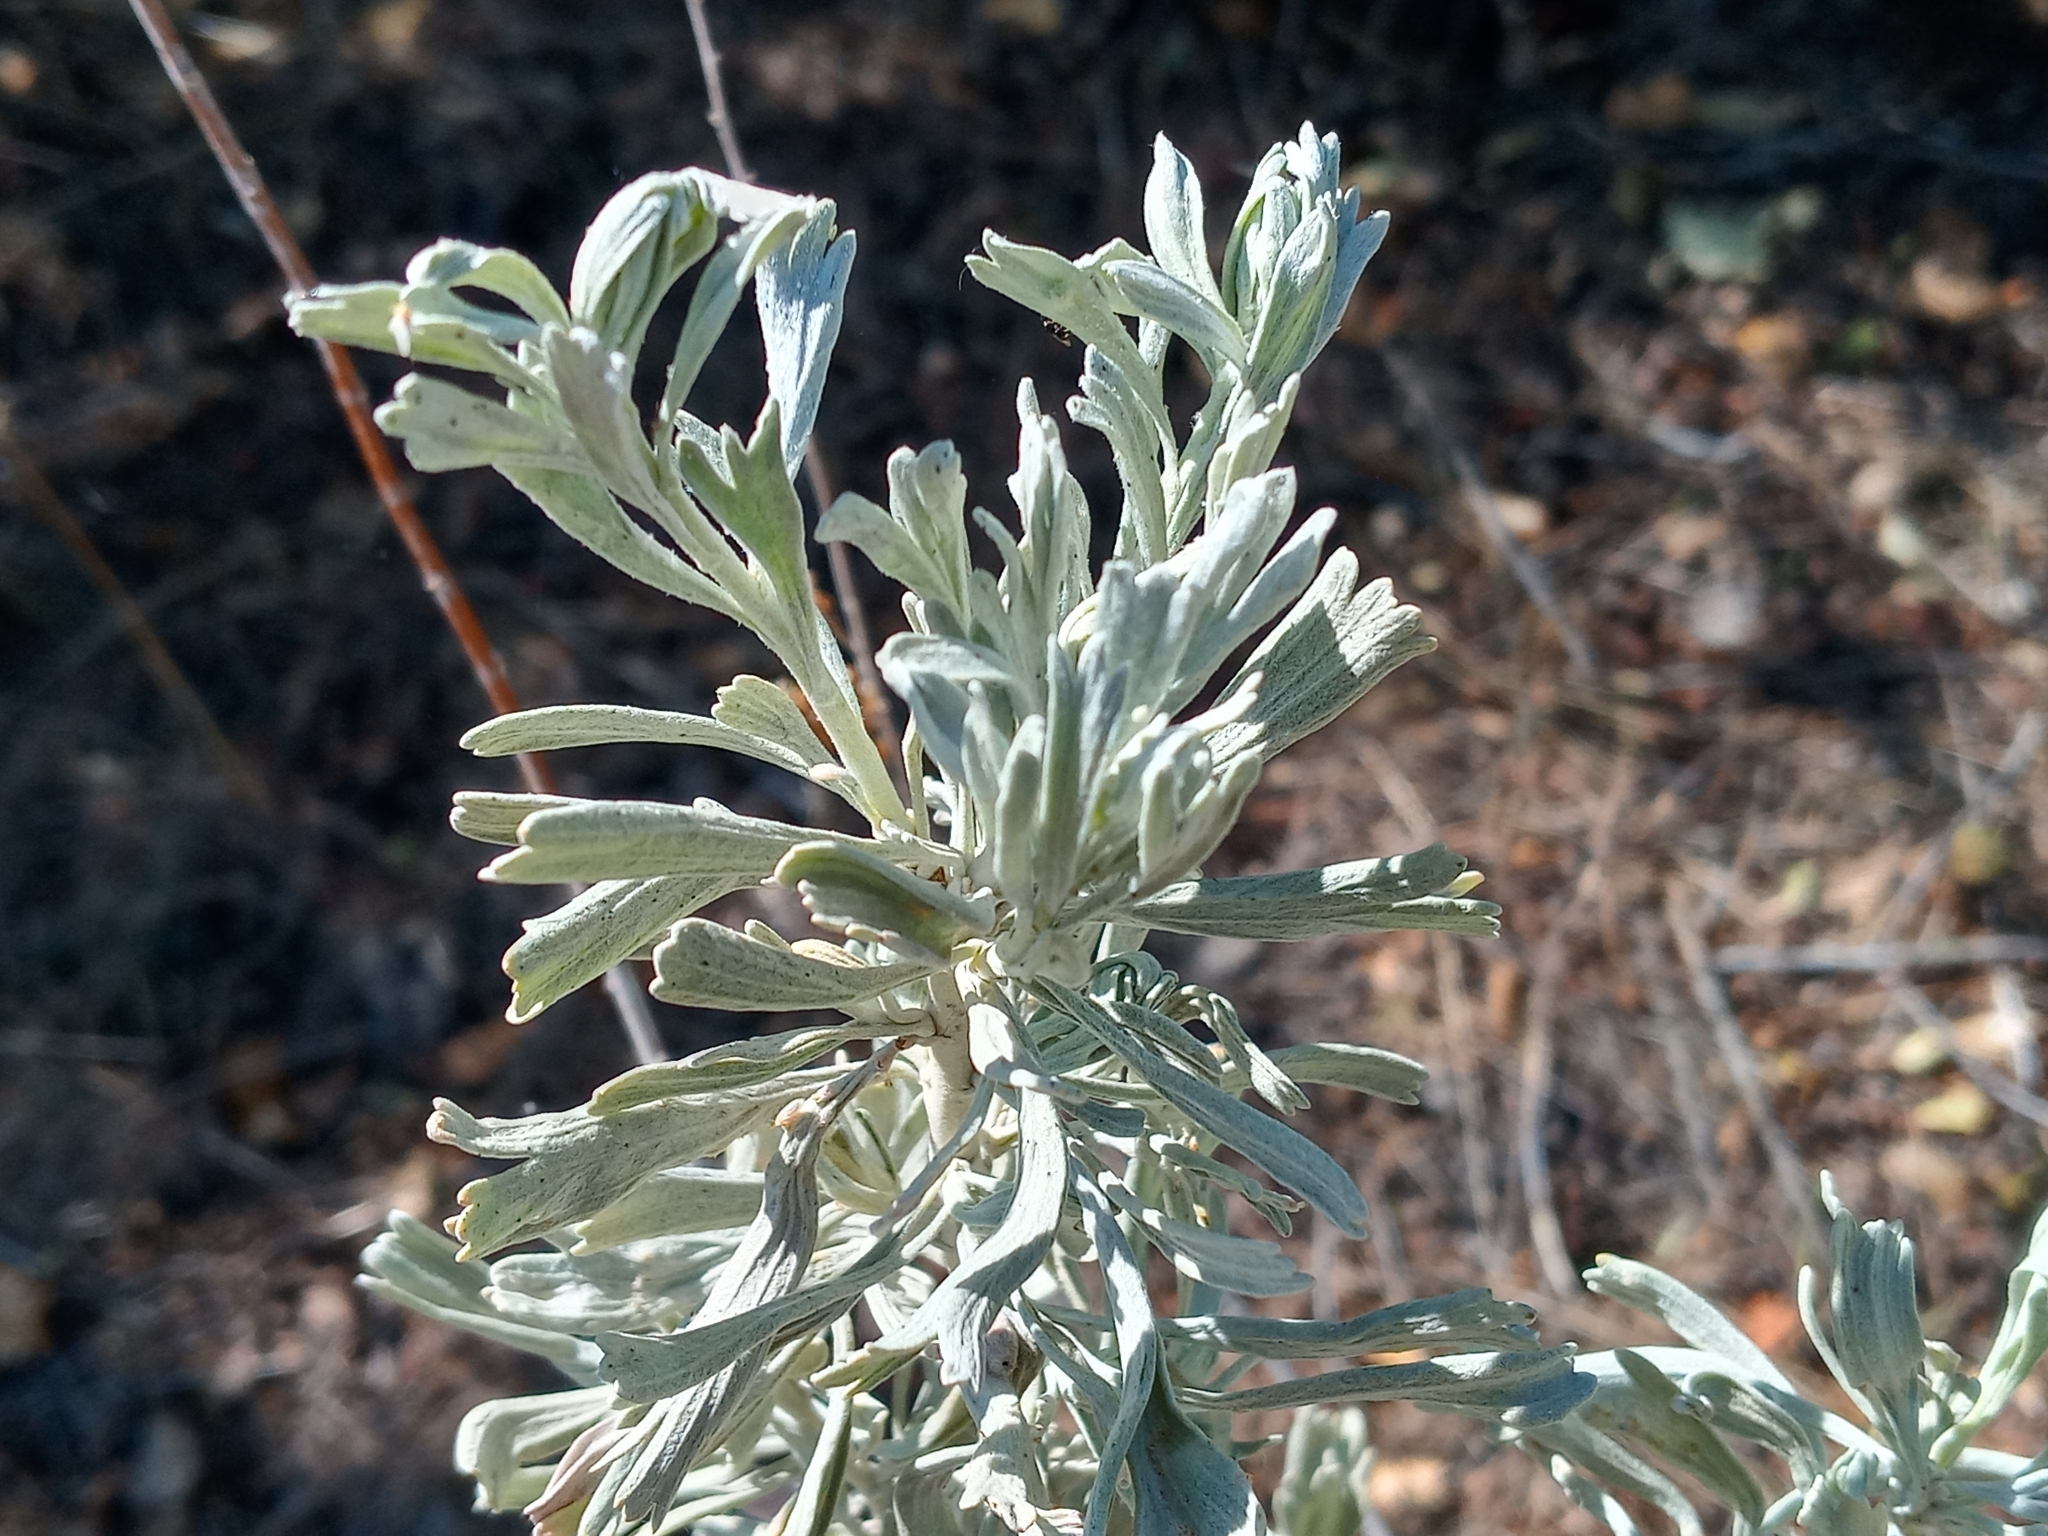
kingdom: Animalia
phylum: Arthropoda
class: Insecta
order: Diptera
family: Cecidomyiidae
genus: Rhopalomyia
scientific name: Rhopalomyia medusirrasa
